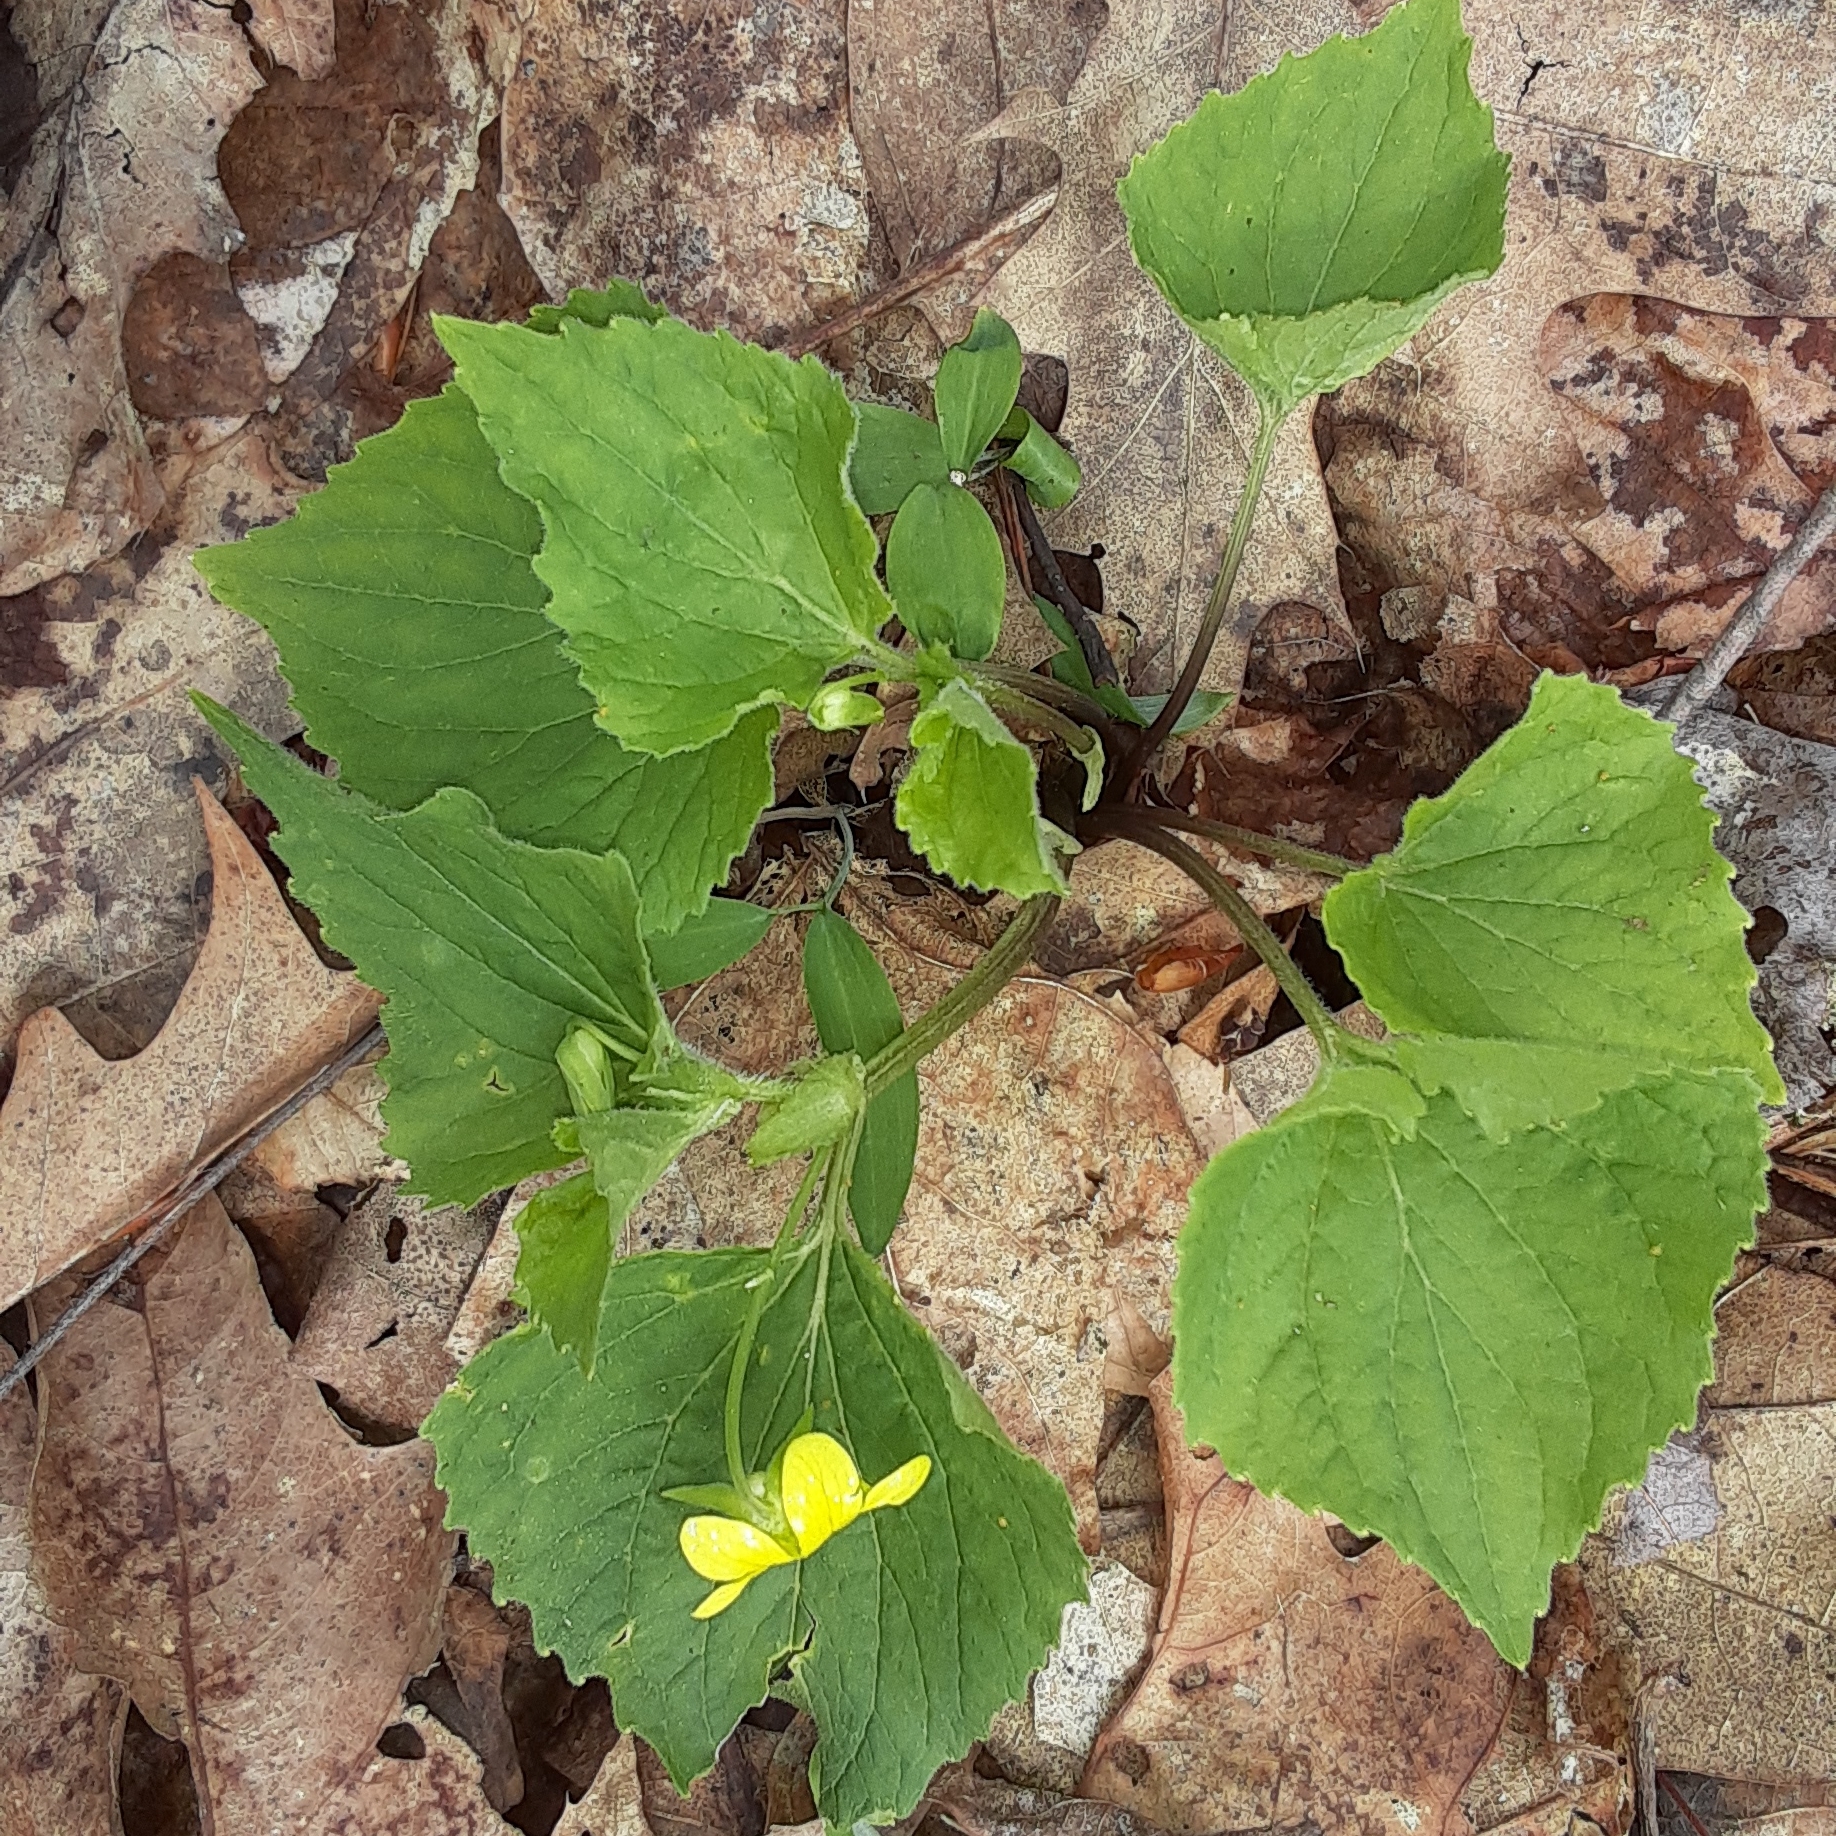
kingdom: Plantae
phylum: Tracheophyta
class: Magnoliopsida
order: Malpighiales
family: Violaceae
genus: Viola
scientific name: Viola eriocarpa
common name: Smooth yellow violet
